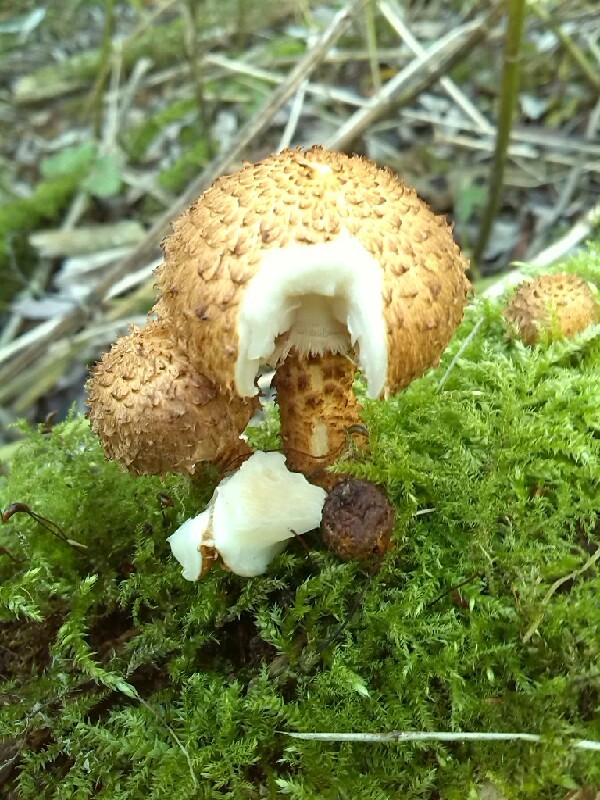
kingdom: Fungi
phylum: Basidiomycota
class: Agaricomycetes
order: Agaricales
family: Strophariaceae
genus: Pholiota
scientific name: Pholiota squarrosa
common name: Shaggy pholiota
